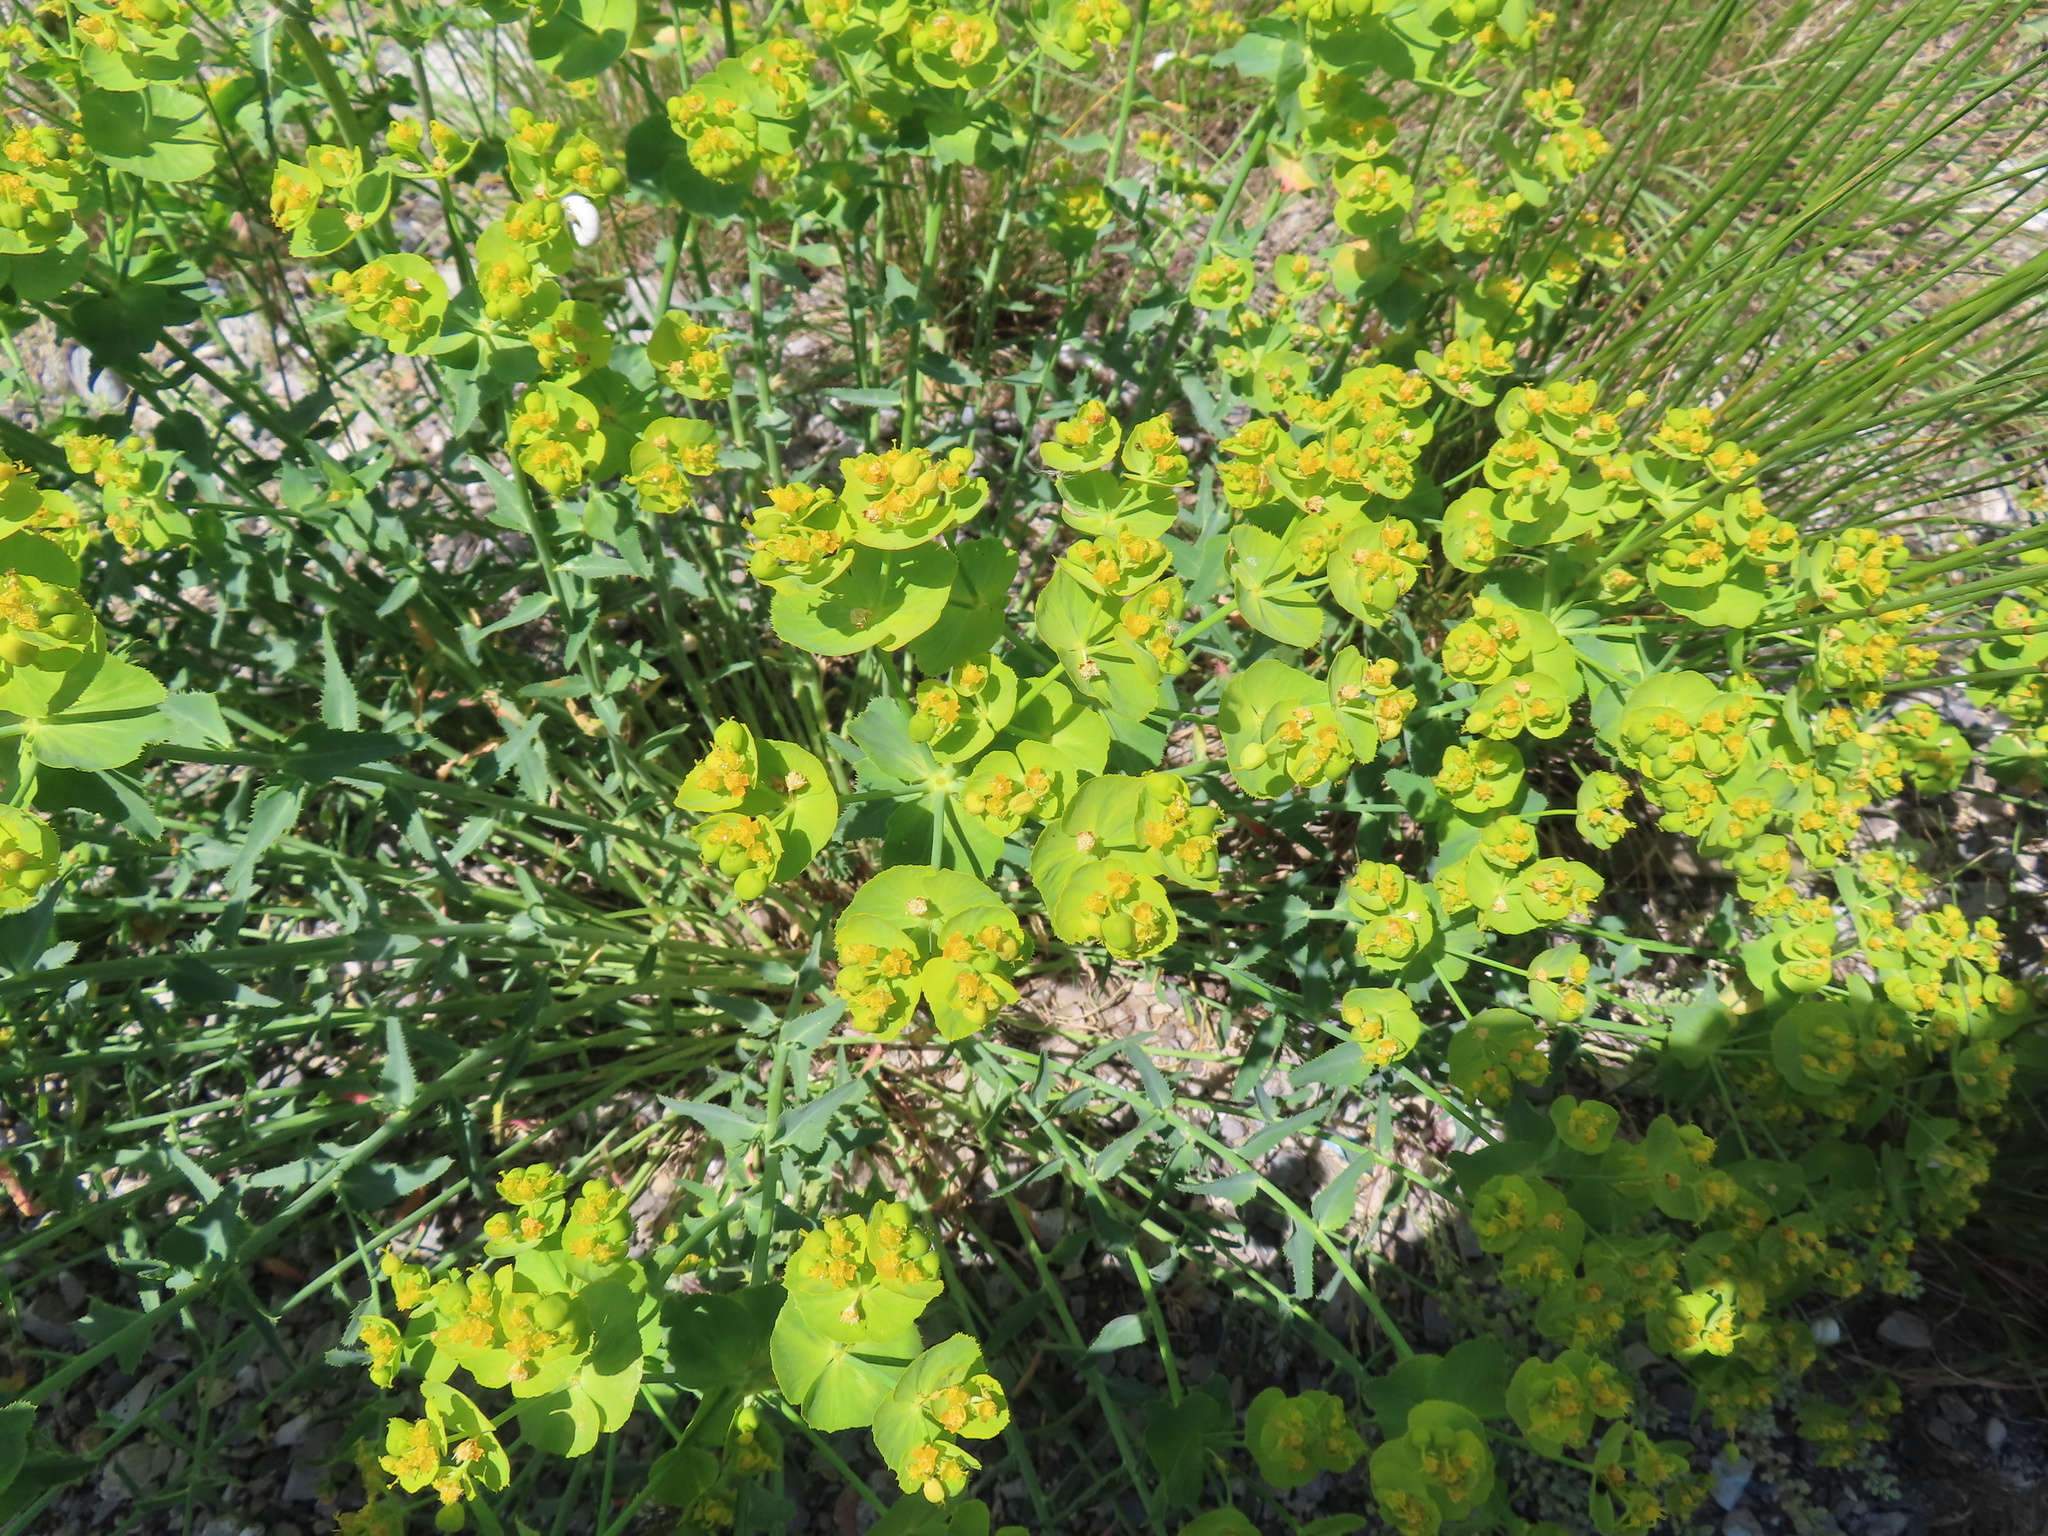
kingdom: Plantae
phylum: Tracheophyta
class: Magnoliopsida
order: Malpighiales
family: Euphorbiaceae
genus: Euphorbia
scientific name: Euphorbia serrata
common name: Serrate spurge
